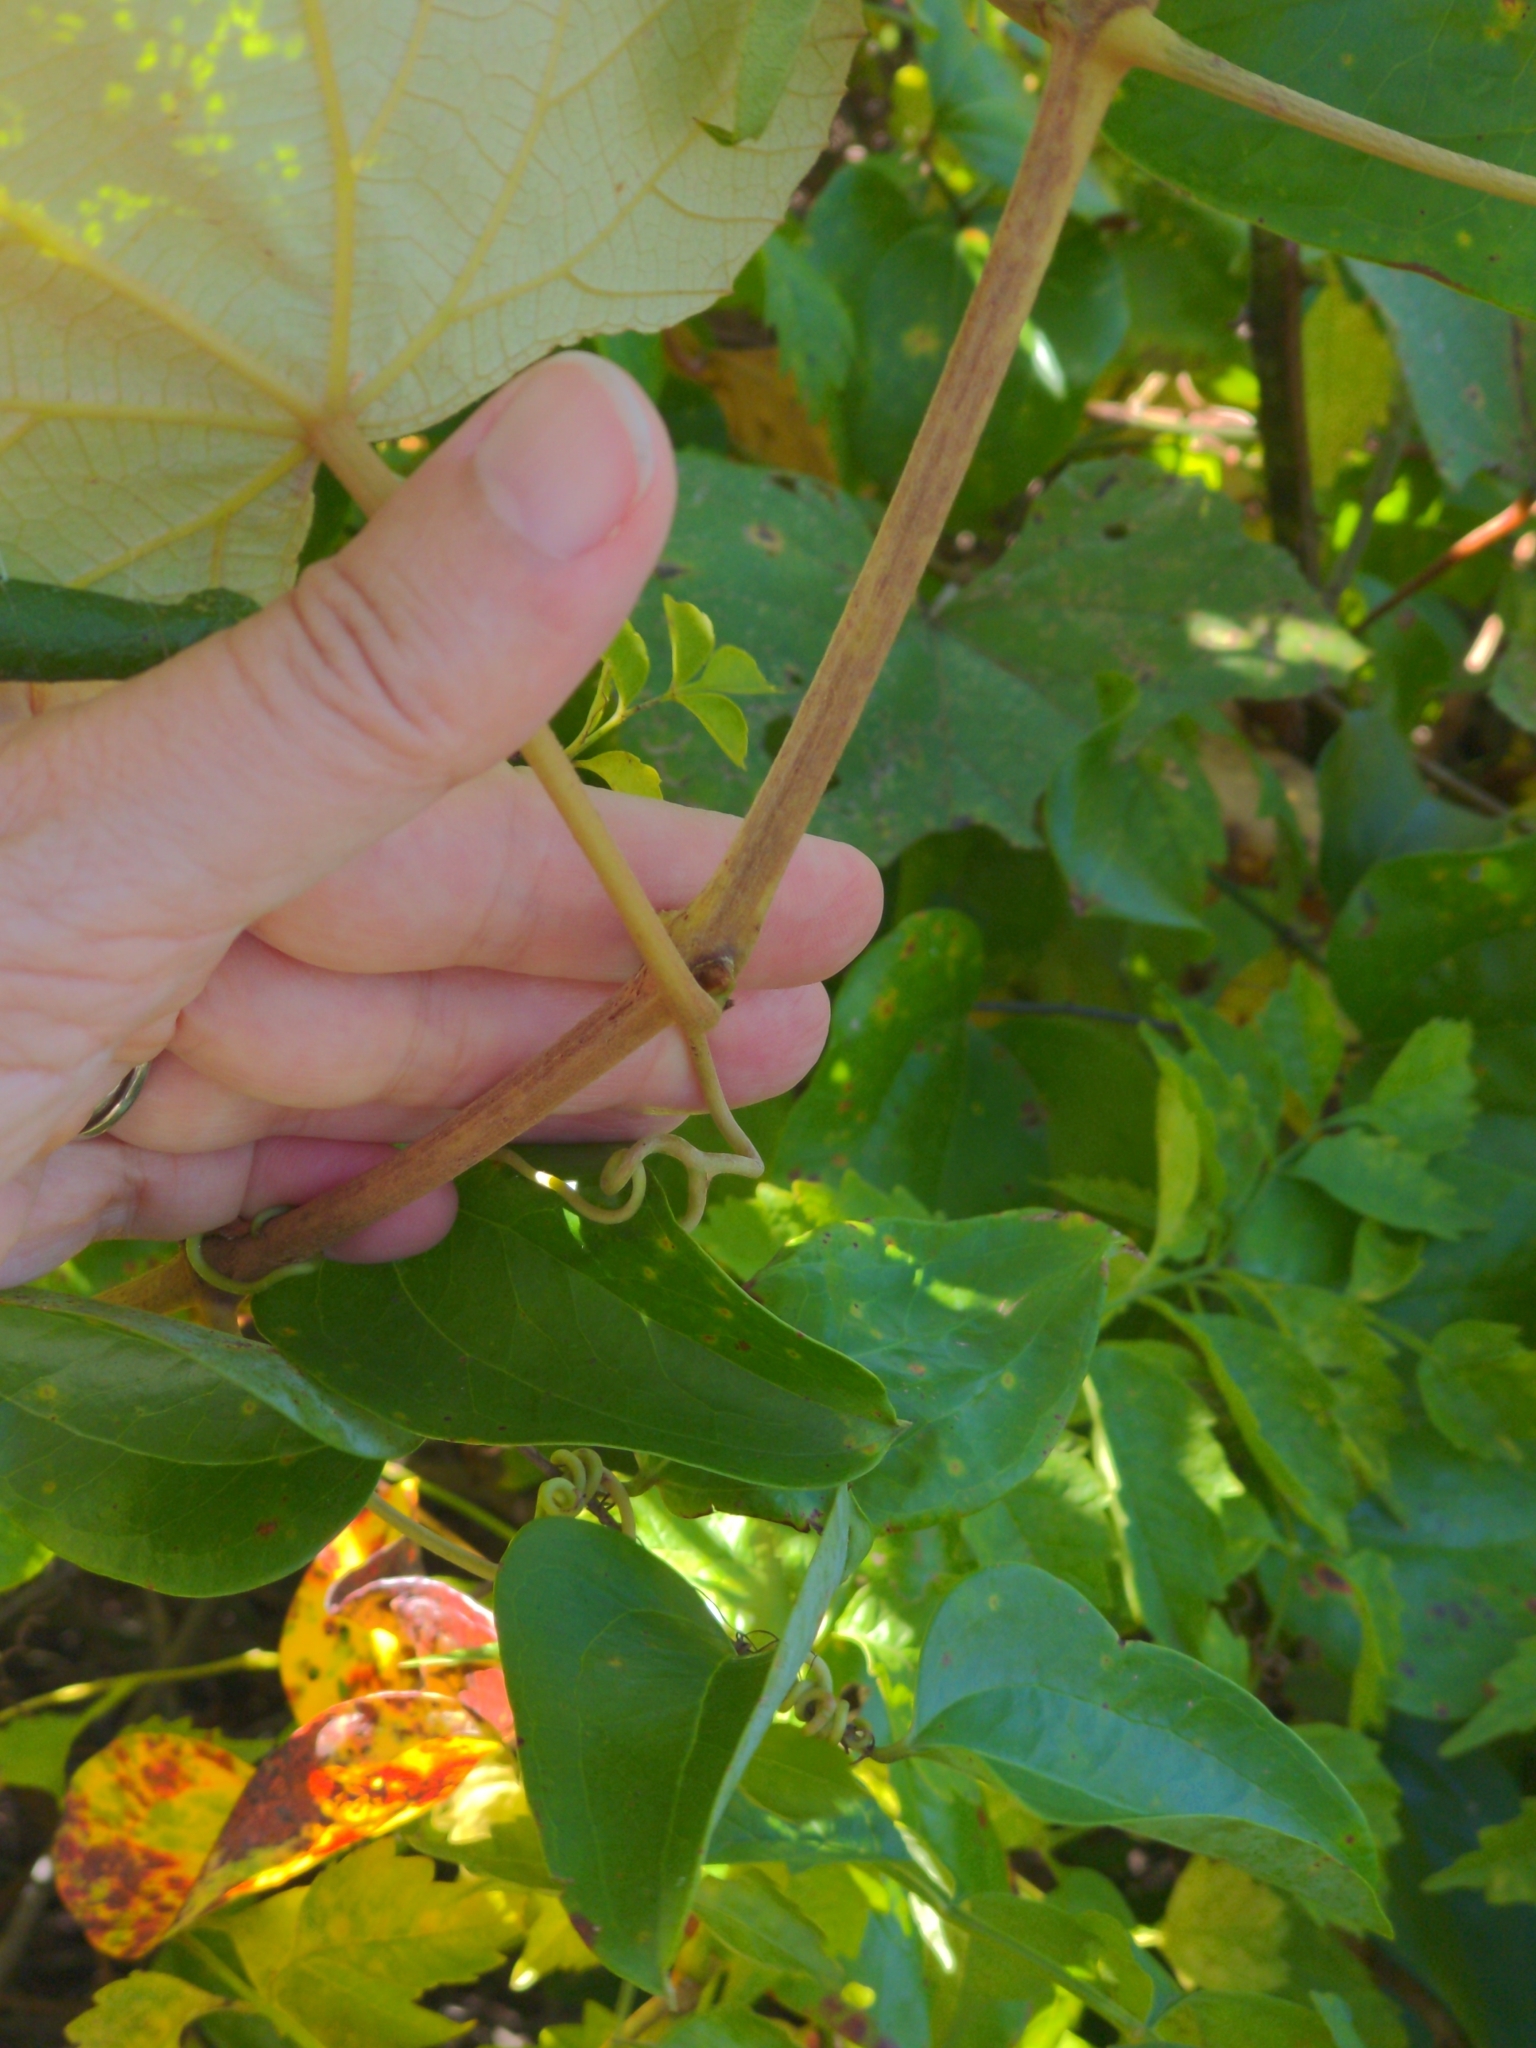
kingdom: Plantae
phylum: Tracheophyta
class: Magnoliopsida
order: Vitales
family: Vitaceae
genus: Vitis
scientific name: Vitis labrusca
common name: Concord grape
